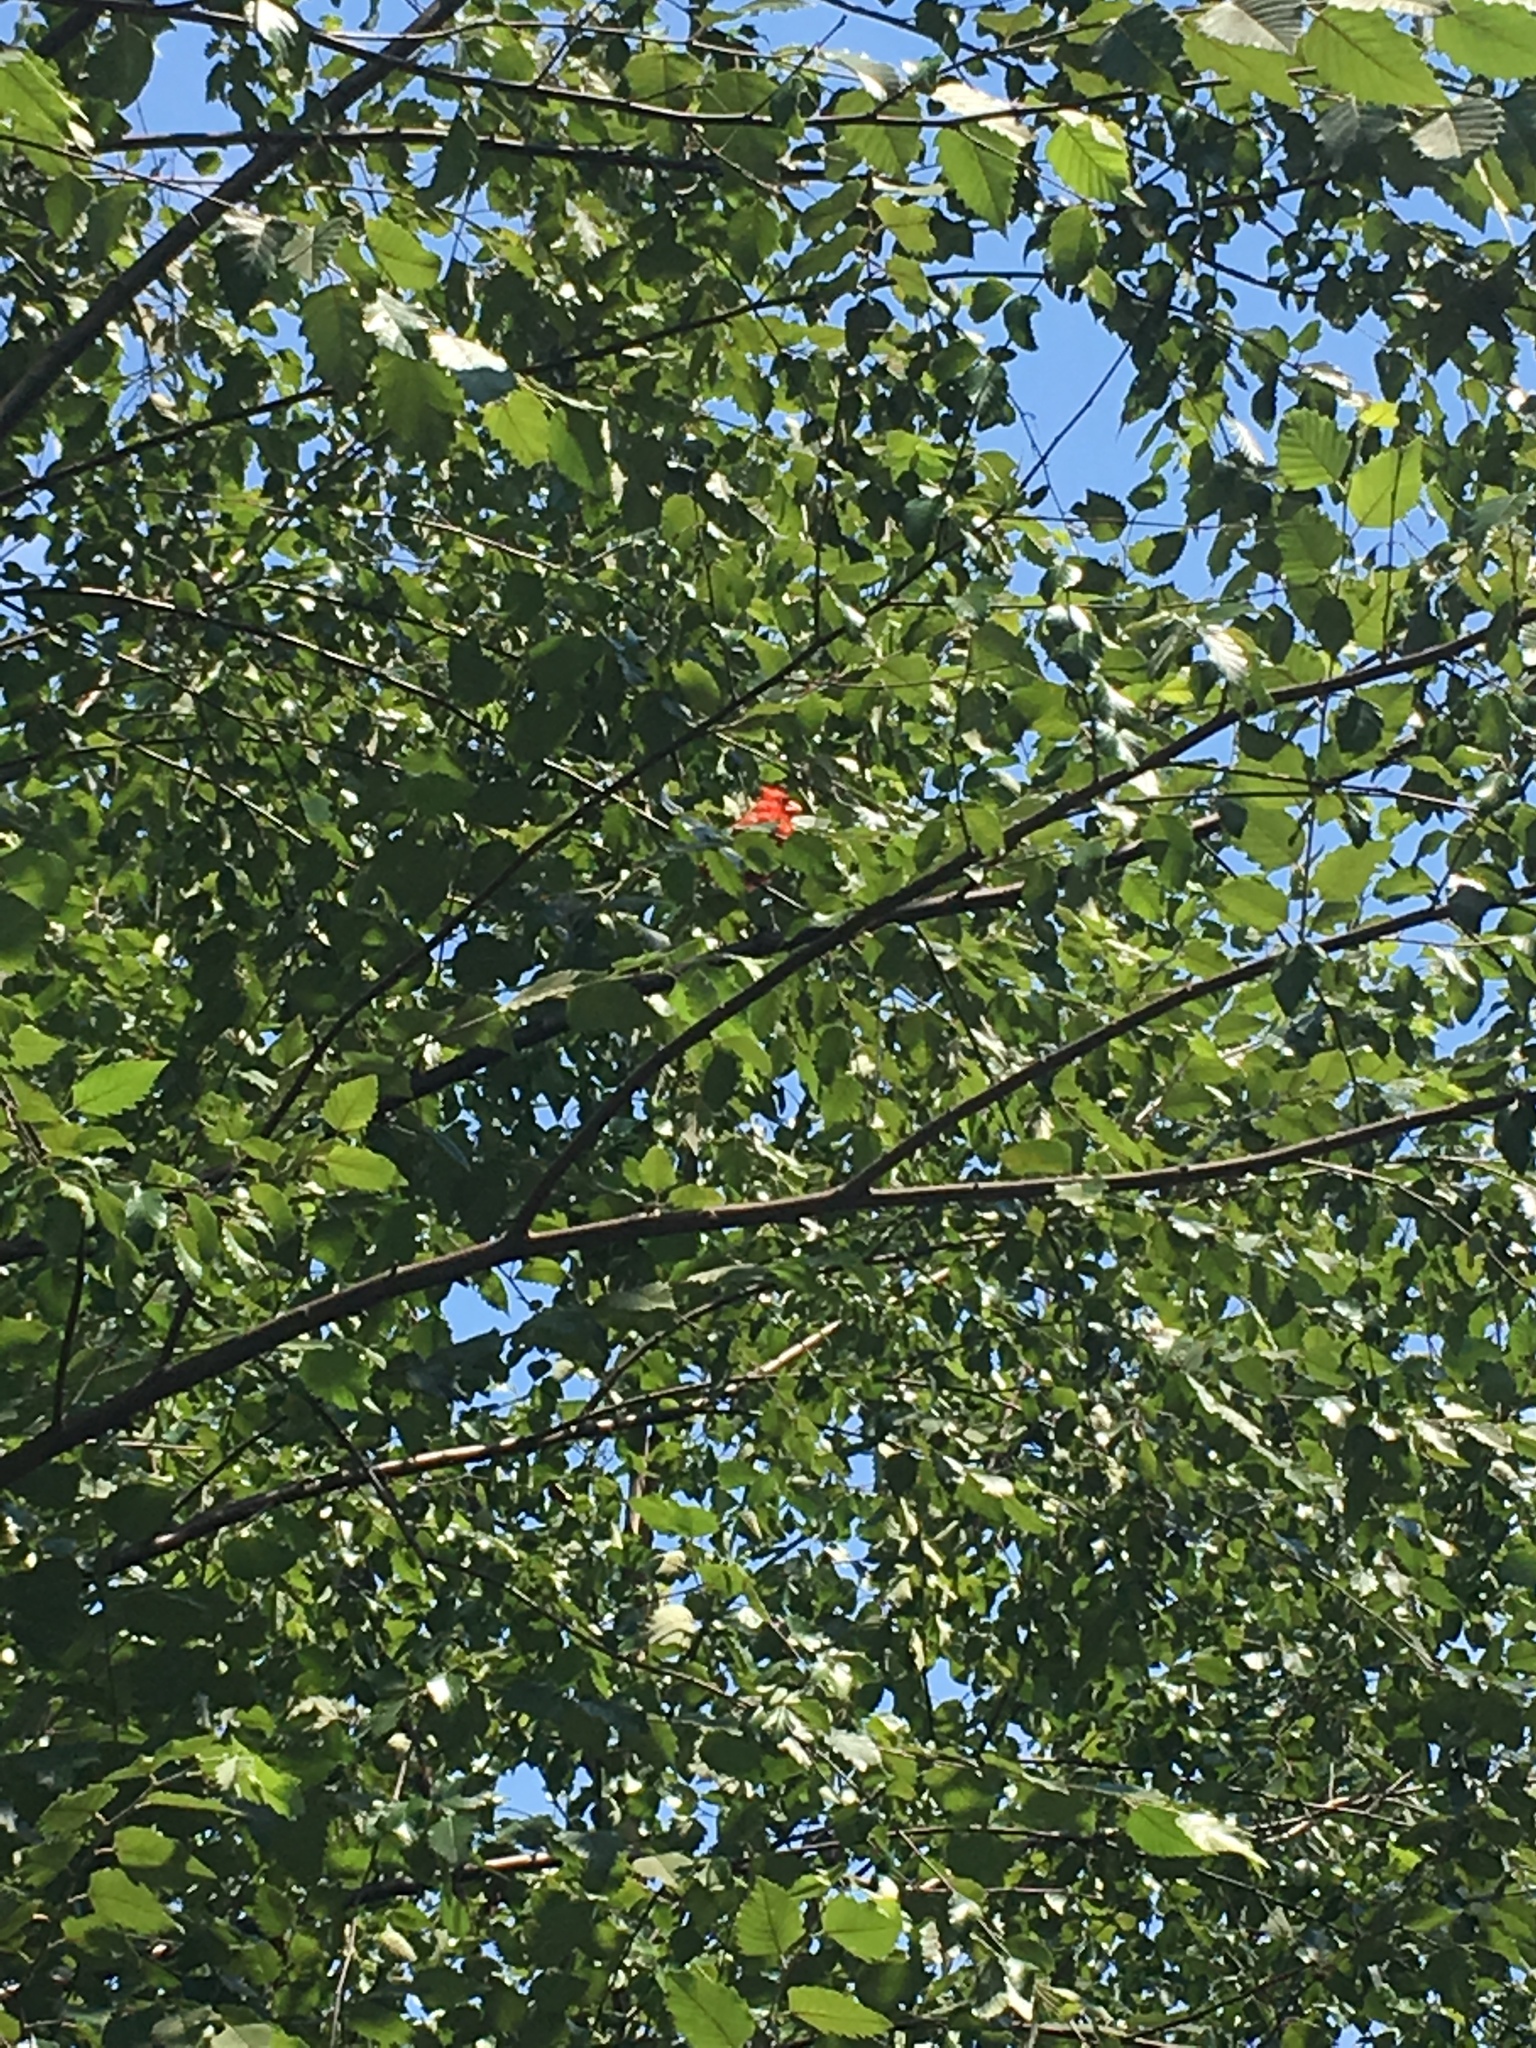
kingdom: Animalia
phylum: Chordata
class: Aves
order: Passeriformes
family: Cardinalidae
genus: Cardinalis
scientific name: Cardinalis cardinalis
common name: Northern cardinal
